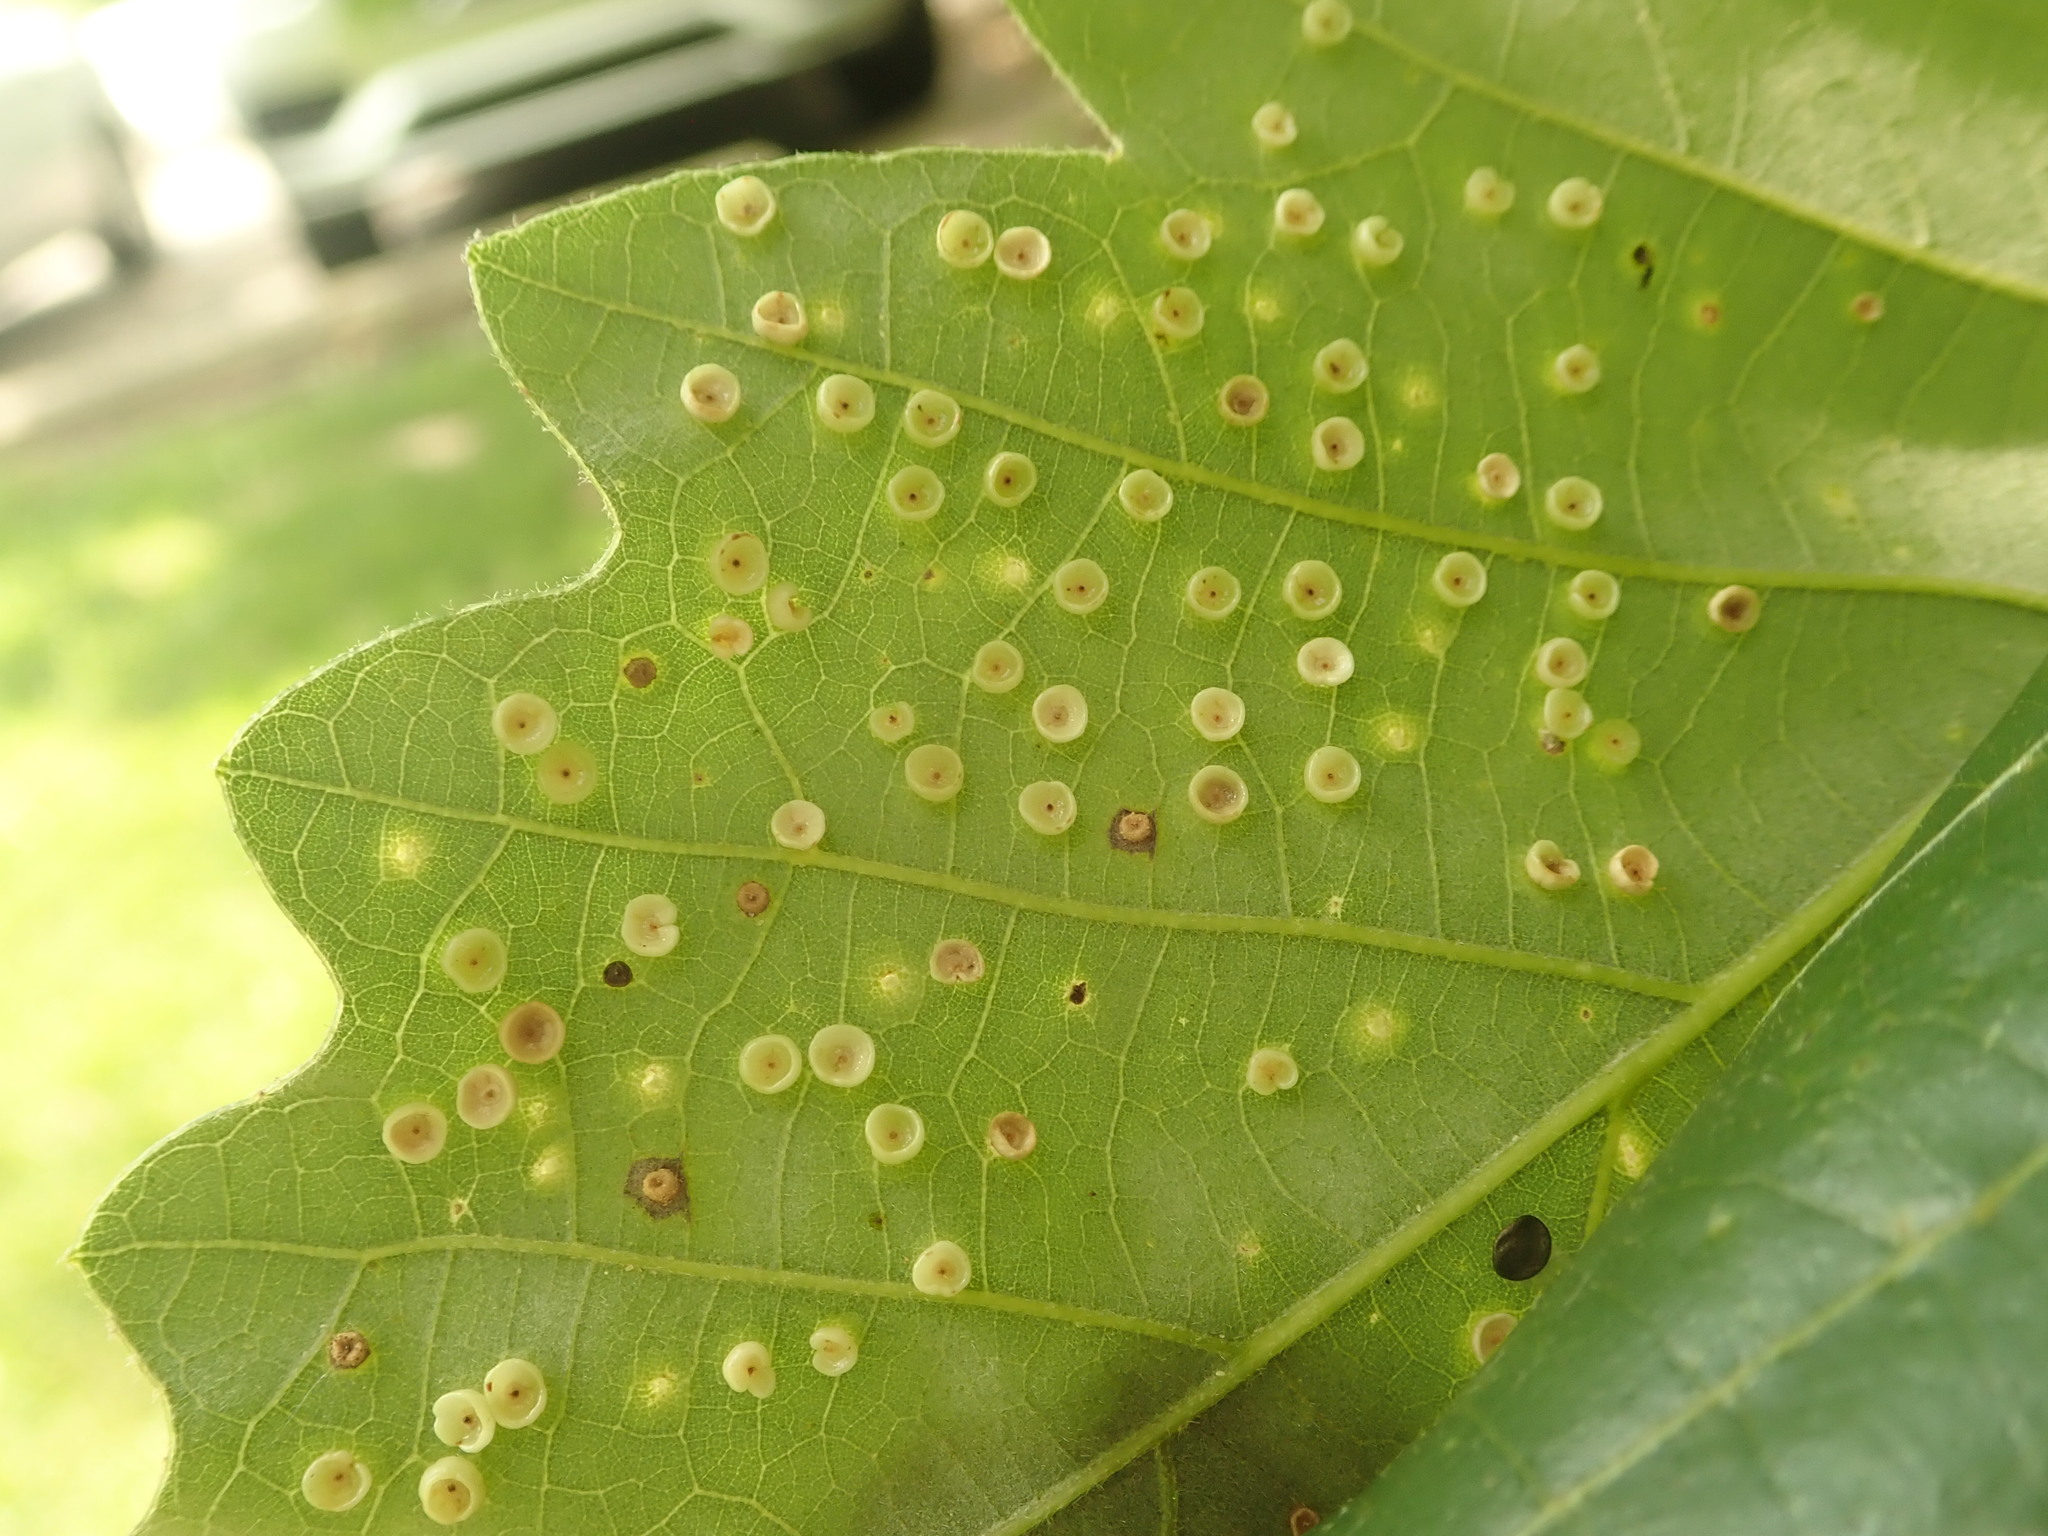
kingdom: Animalia
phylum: Arthropoda
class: Insecta
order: Hymenoptera
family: Cynipidae
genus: Neuroterus
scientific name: Neuroterus saltarius
